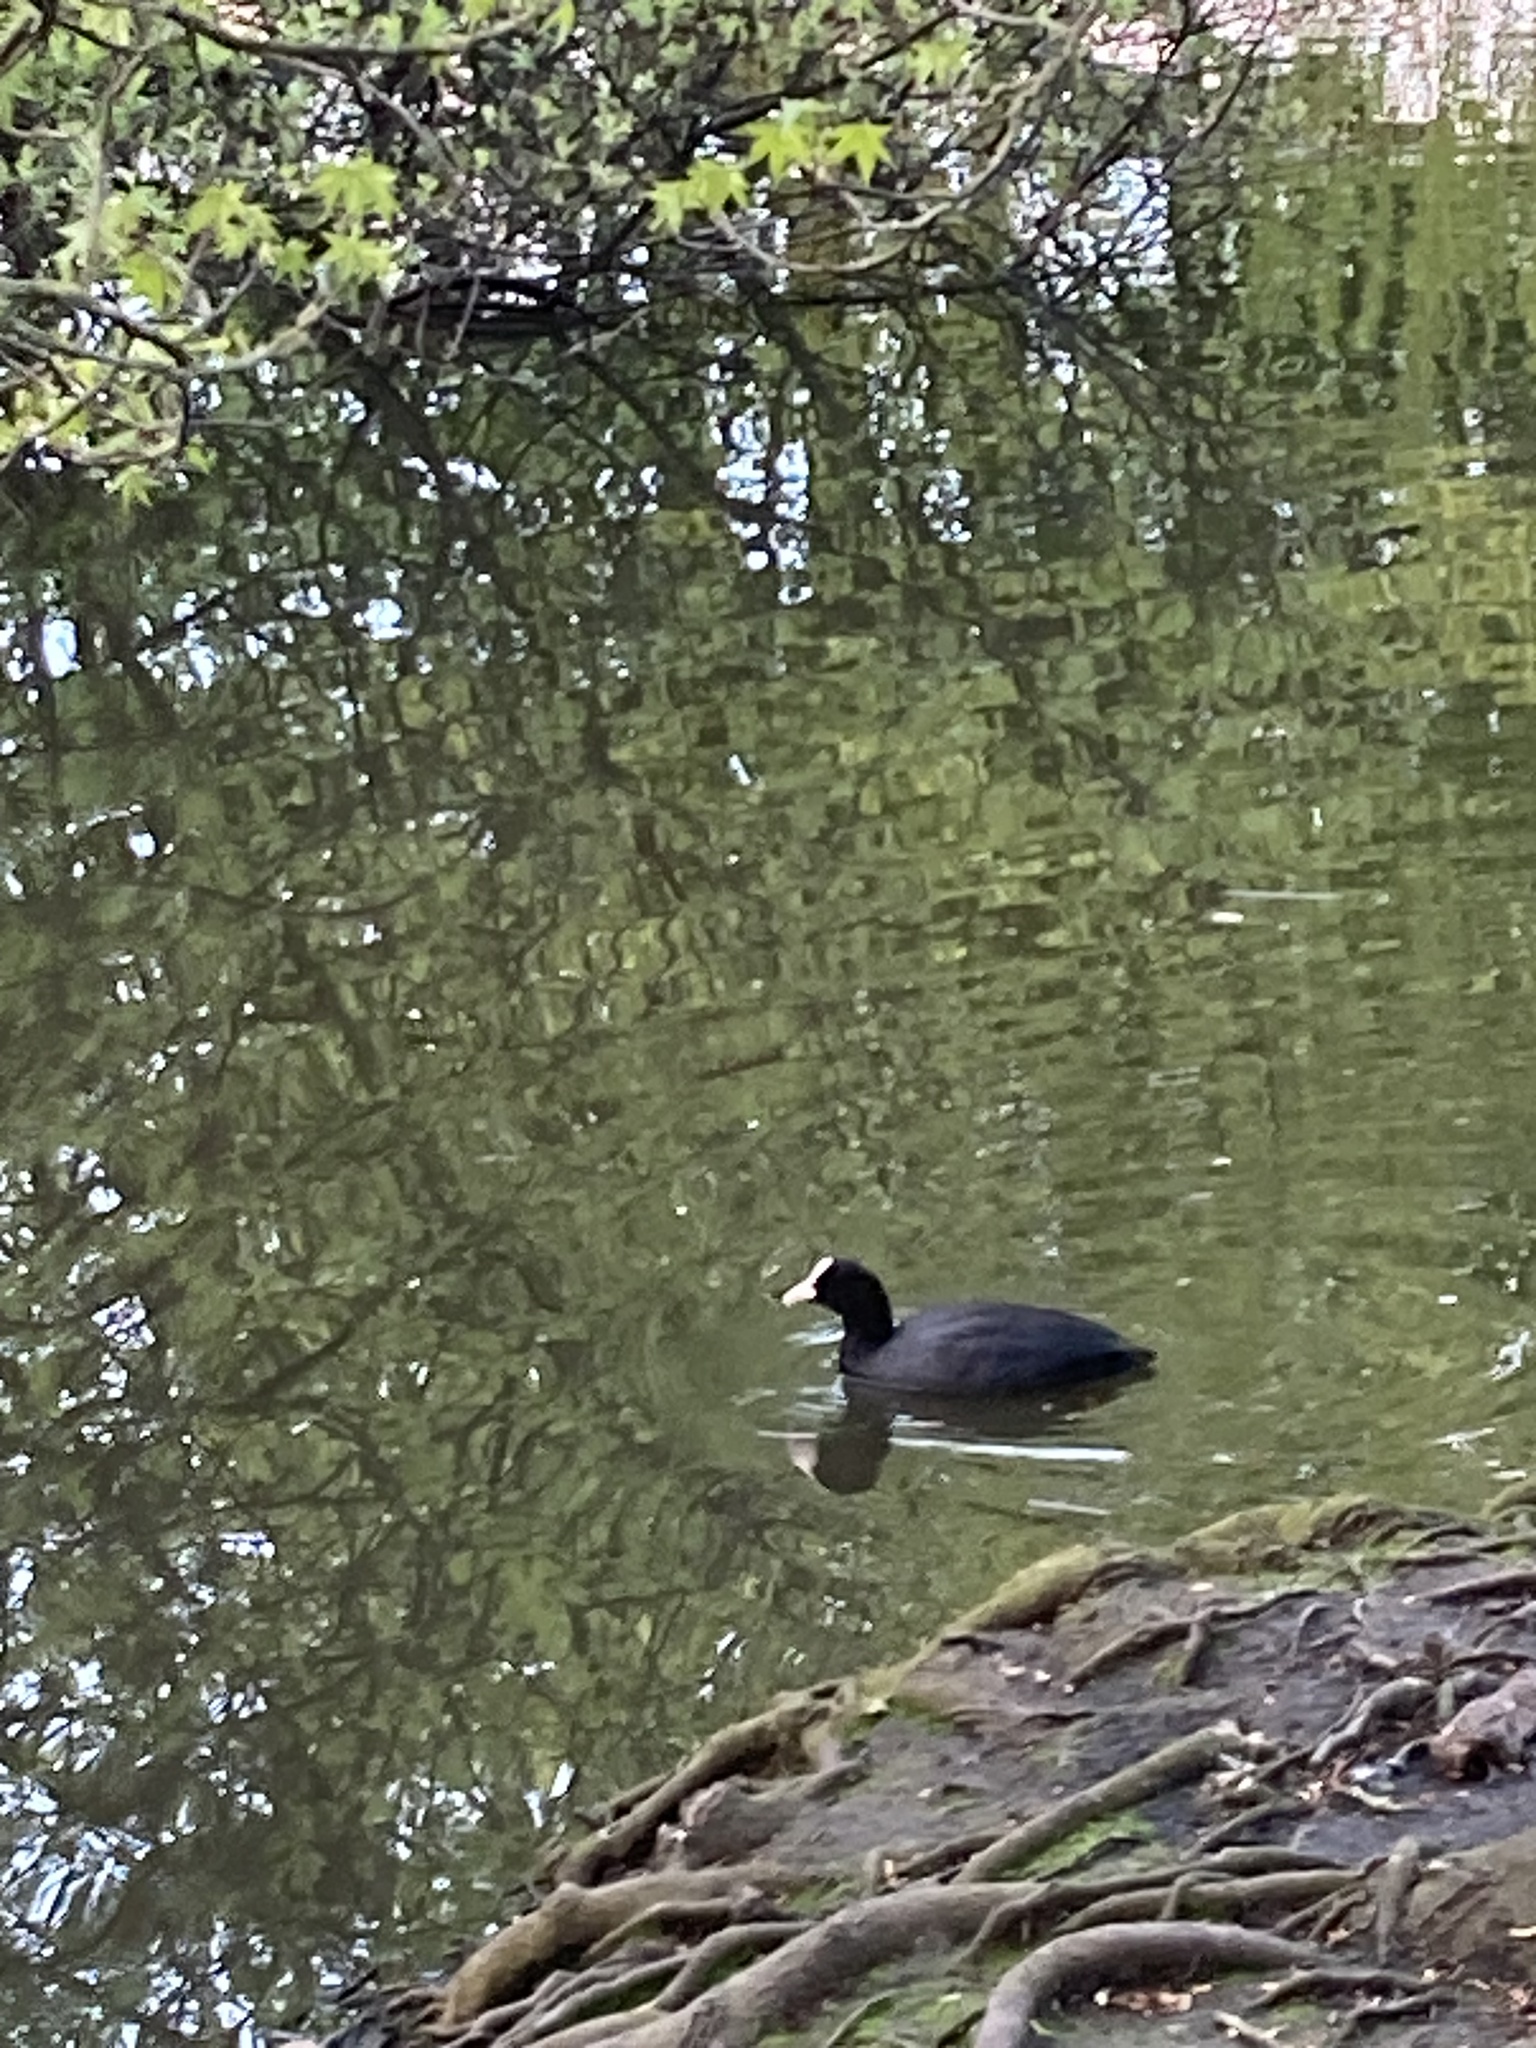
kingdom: Animalia
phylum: Chordata
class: Aves
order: Gruiformes
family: Rallidae
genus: Fulica
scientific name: Fulica atra
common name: Eurasian coot
